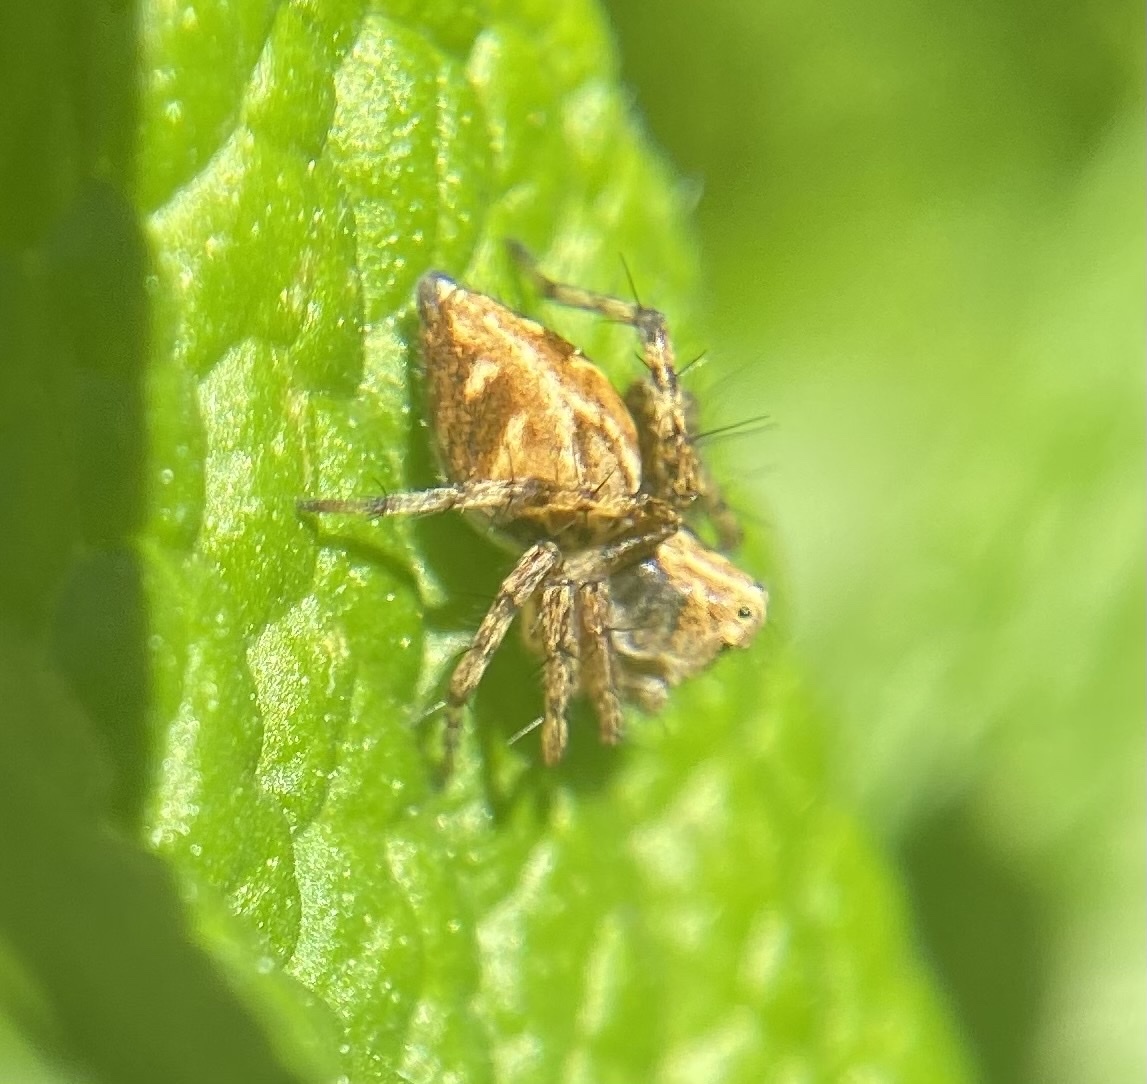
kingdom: Animalia
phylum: Arthropoda
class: Arachnida
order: Araneae
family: Oxyopidae
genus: Oxyopes
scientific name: Oxyopes scalaris
